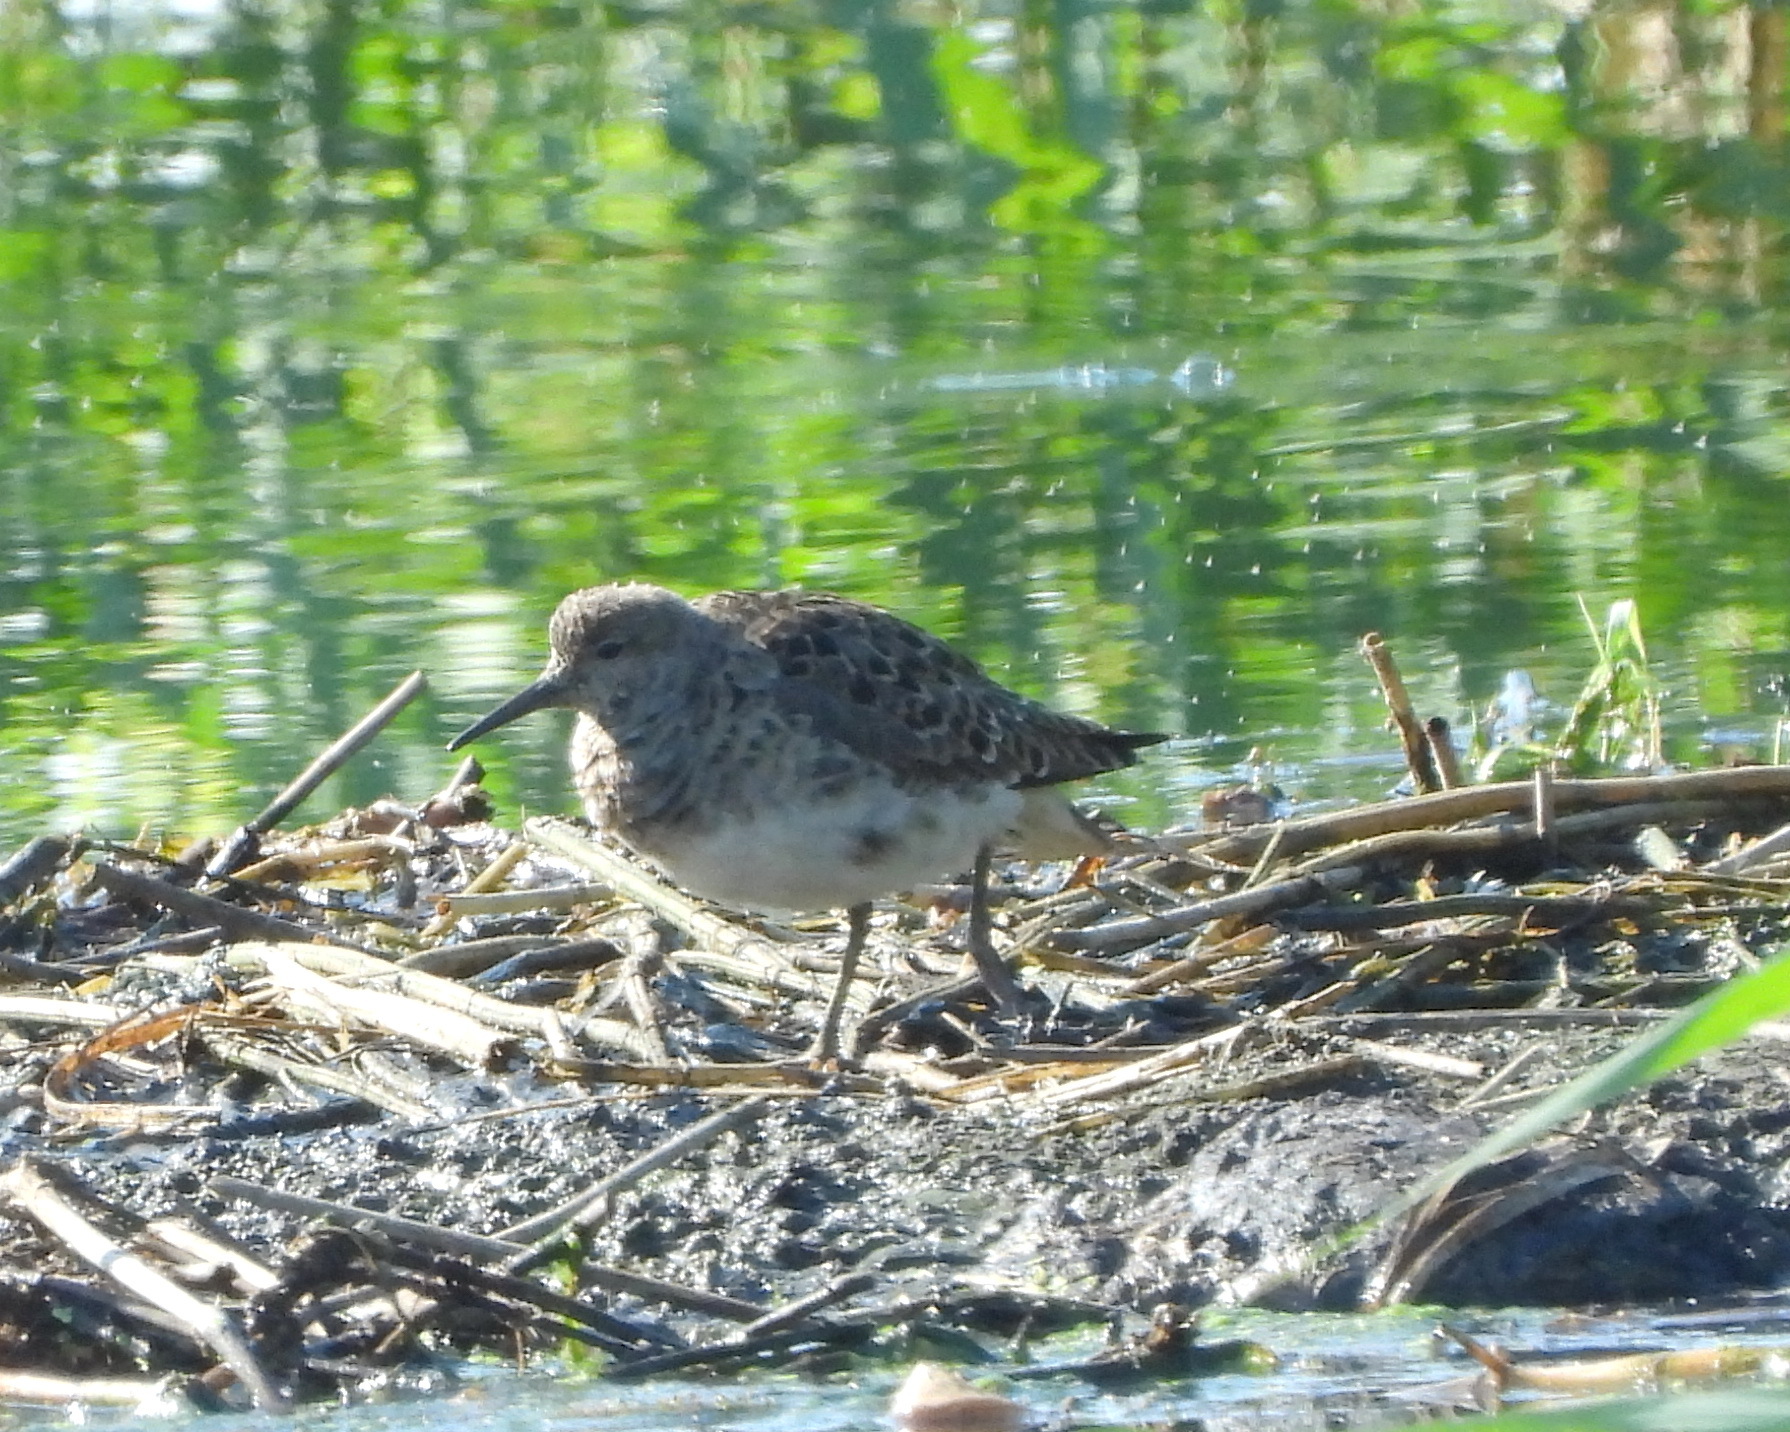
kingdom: Animalia
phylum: Chordata
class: Aves
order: Charadriiformes
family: Scolopacidae
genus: Calidris
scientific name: Calidris pugnax
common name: Ruff
